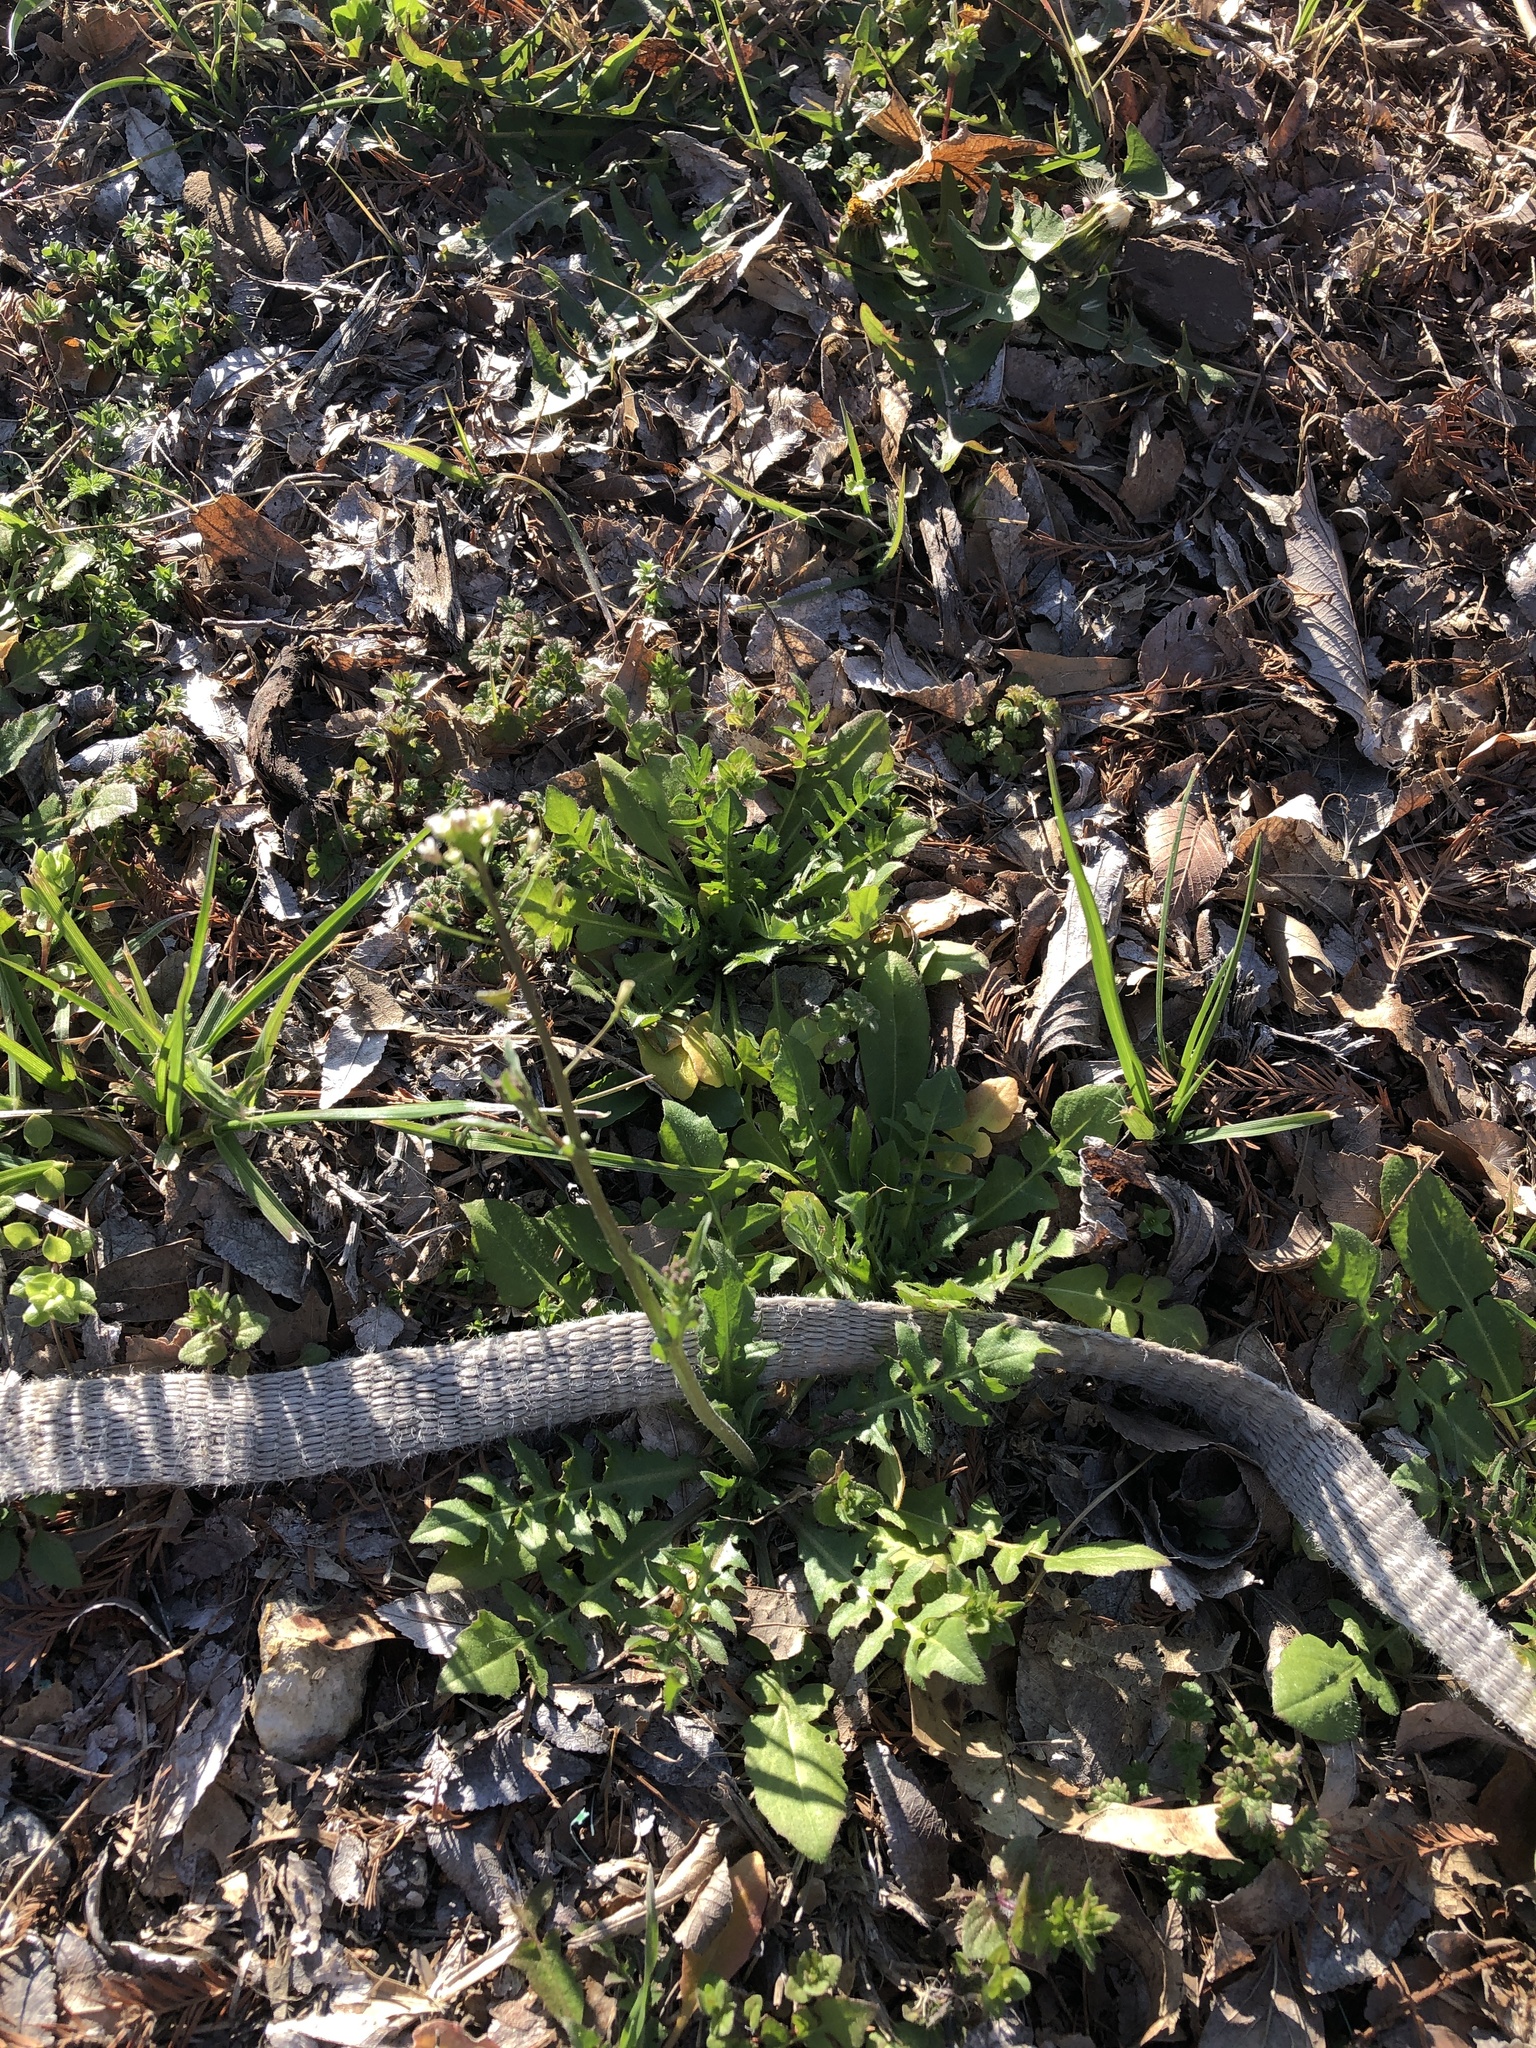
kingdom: Plantae
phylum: Tracheophyta
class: Magnoliopsida
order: Brassicales
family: Brassicaceae
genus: Capsella
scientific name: Capsella bursa-pastoris
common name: Shepherd's purse
